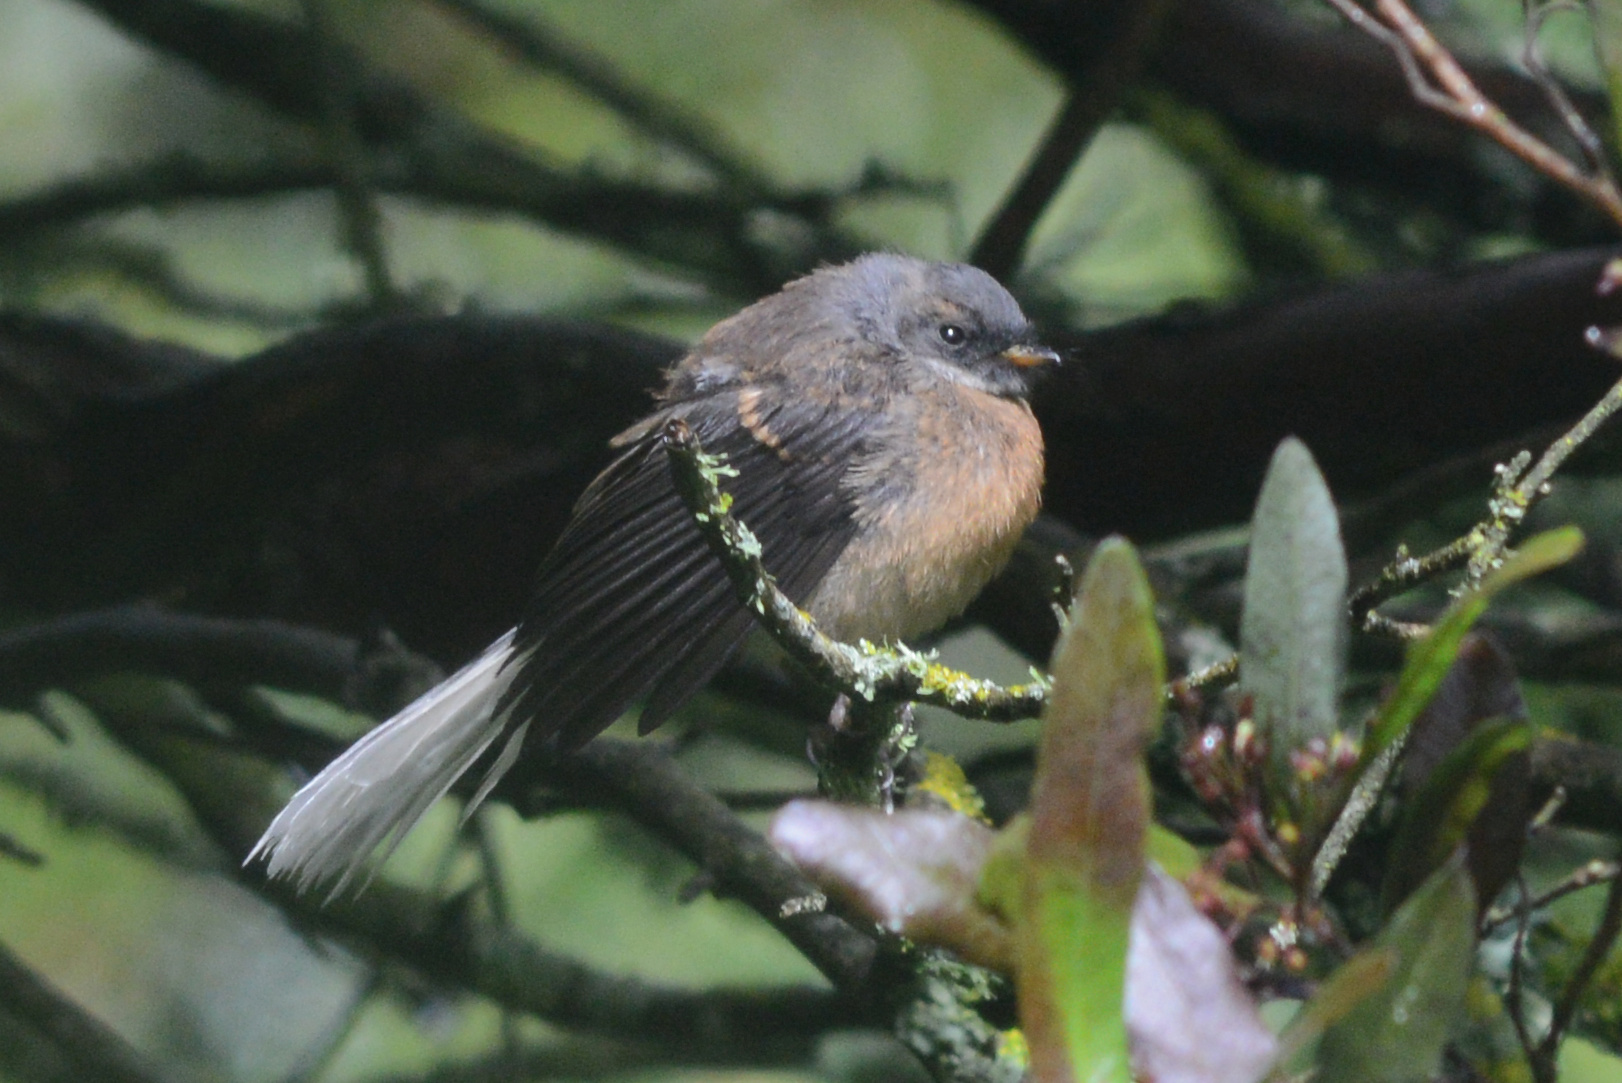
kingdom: Animalia
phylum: Chordata
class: Aves
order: Passeriformes
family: Rhipiduridae
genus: Rhipidura
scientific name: Rhipidura fuliginosa
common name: New zealand fantail
